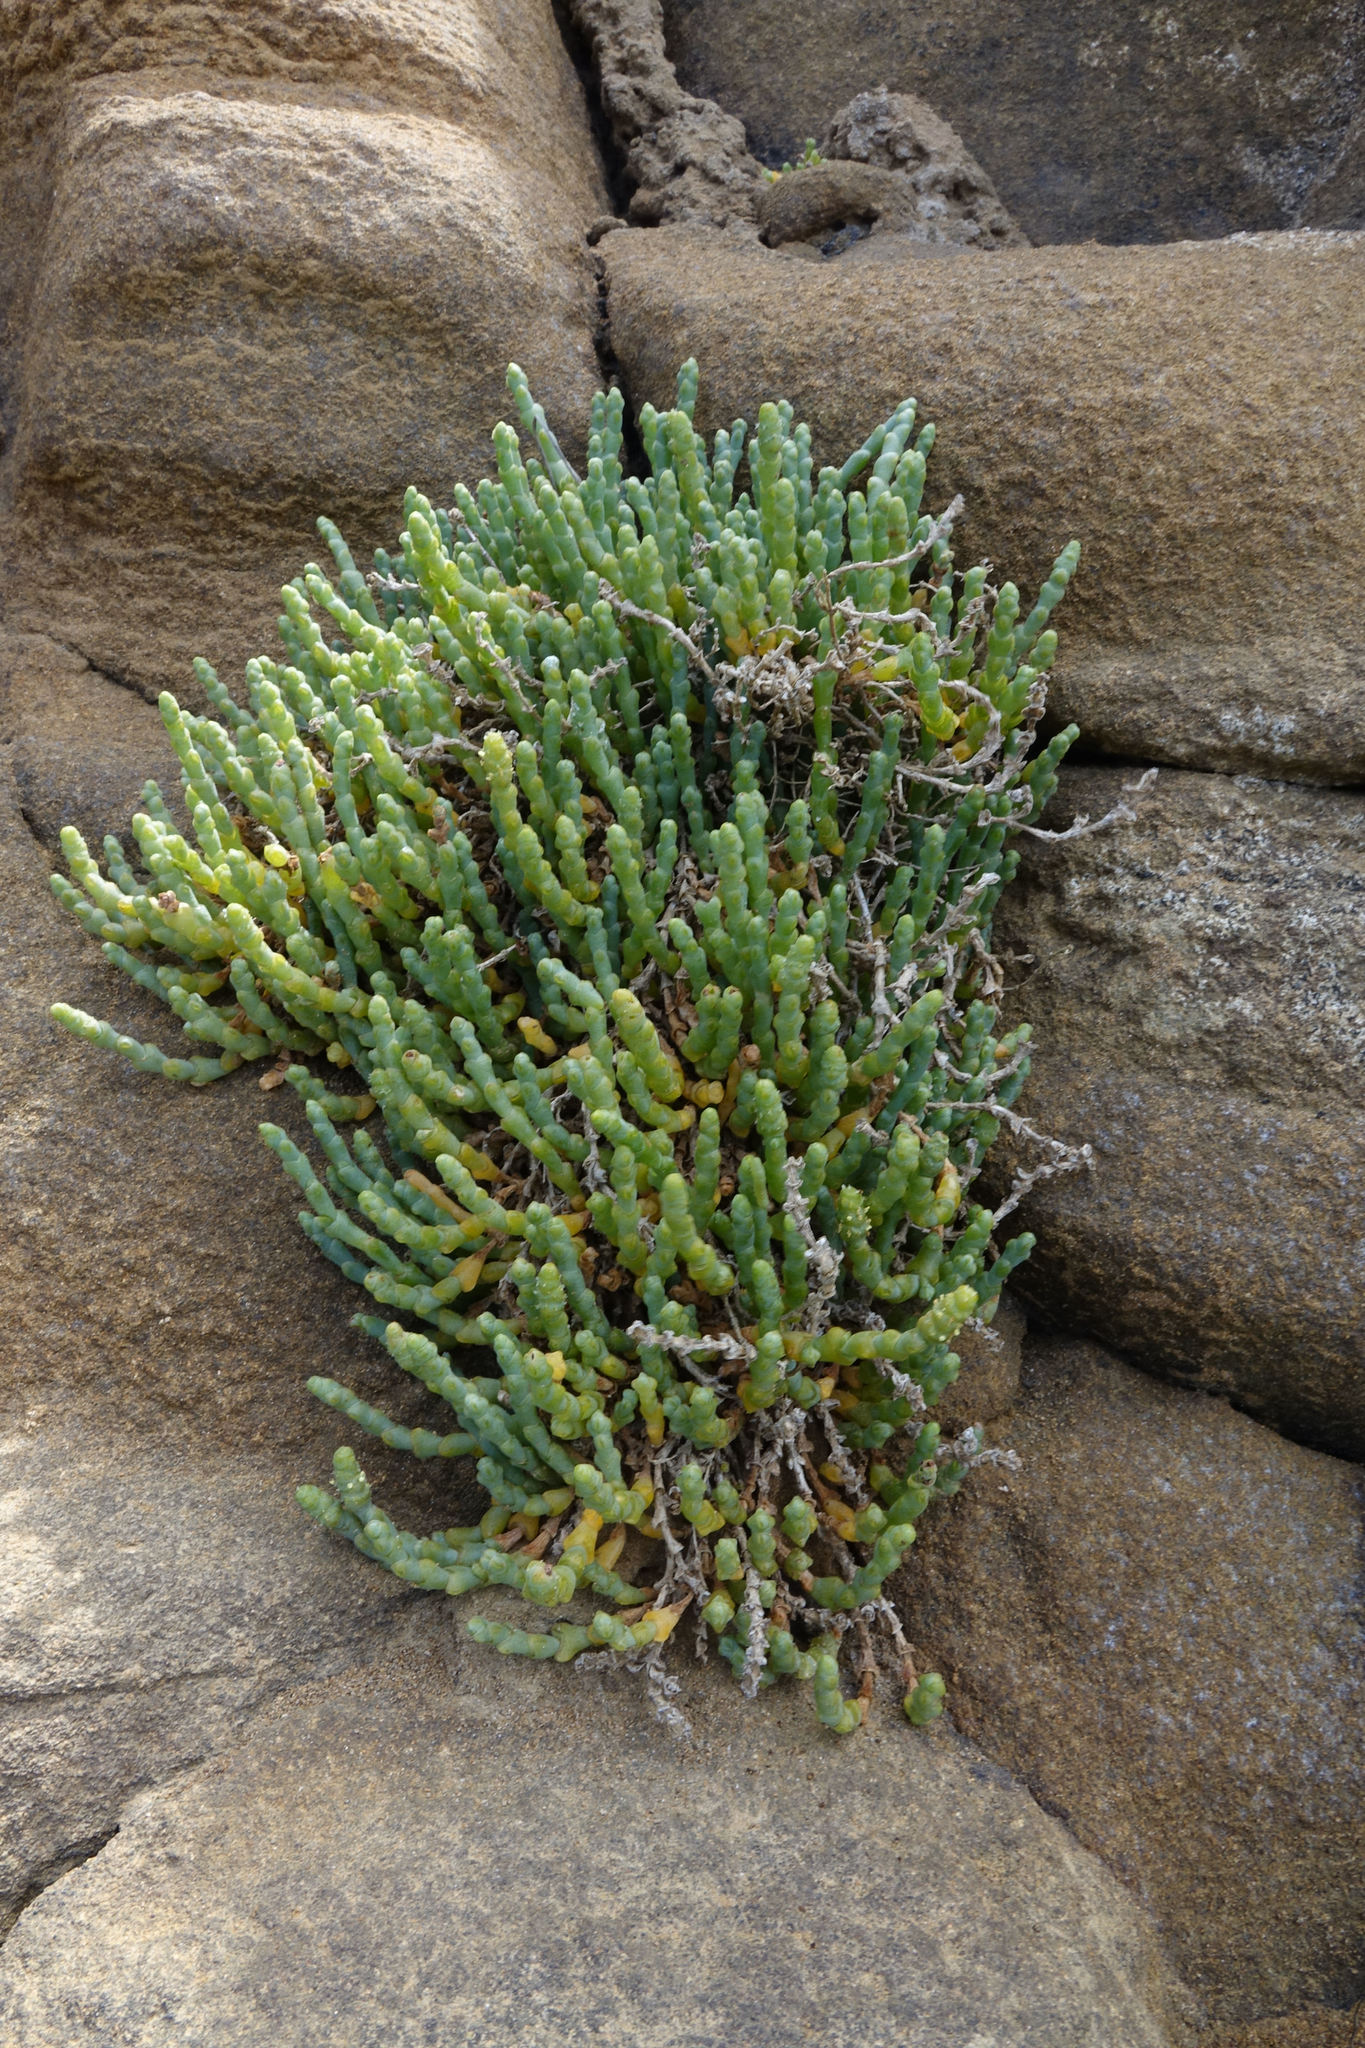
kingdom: Plantae
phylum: Tracheophyta
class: Magnoliopsida
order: Caryophyllales
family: Amaranthaceae
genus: Salicornia
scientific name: Salicornia quinqueflora
